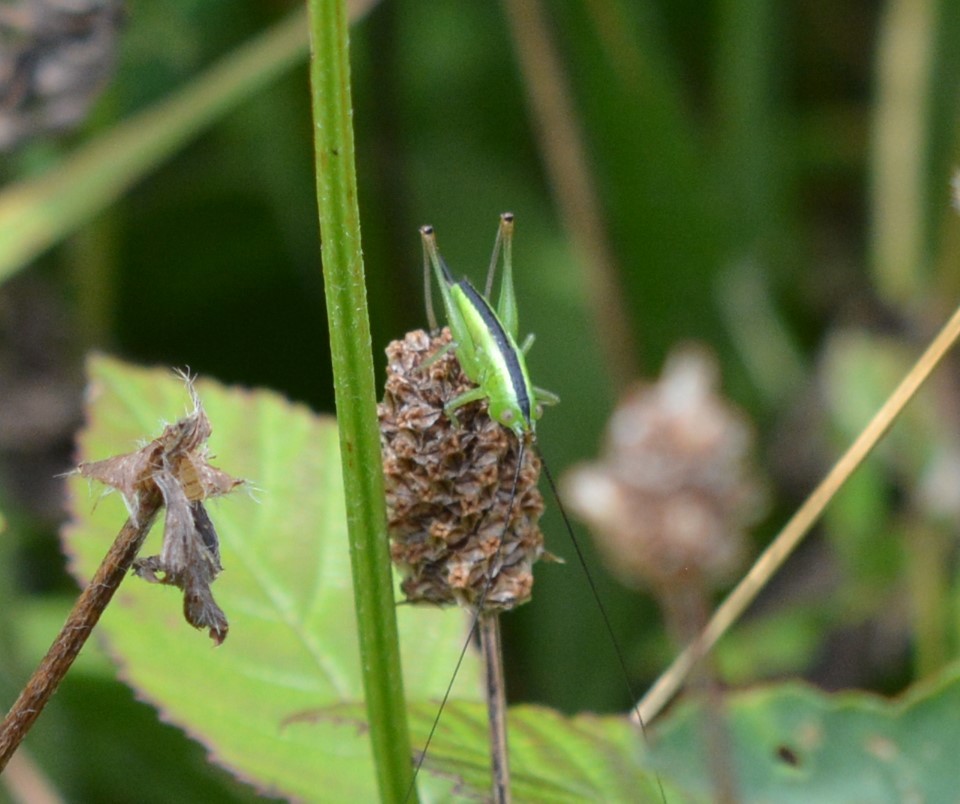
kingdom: Animalia
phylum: Arthropoda
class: Insecta
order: Orthoptera
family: Tettigoniidae
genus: Conocephalus
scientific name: Conocephalus
